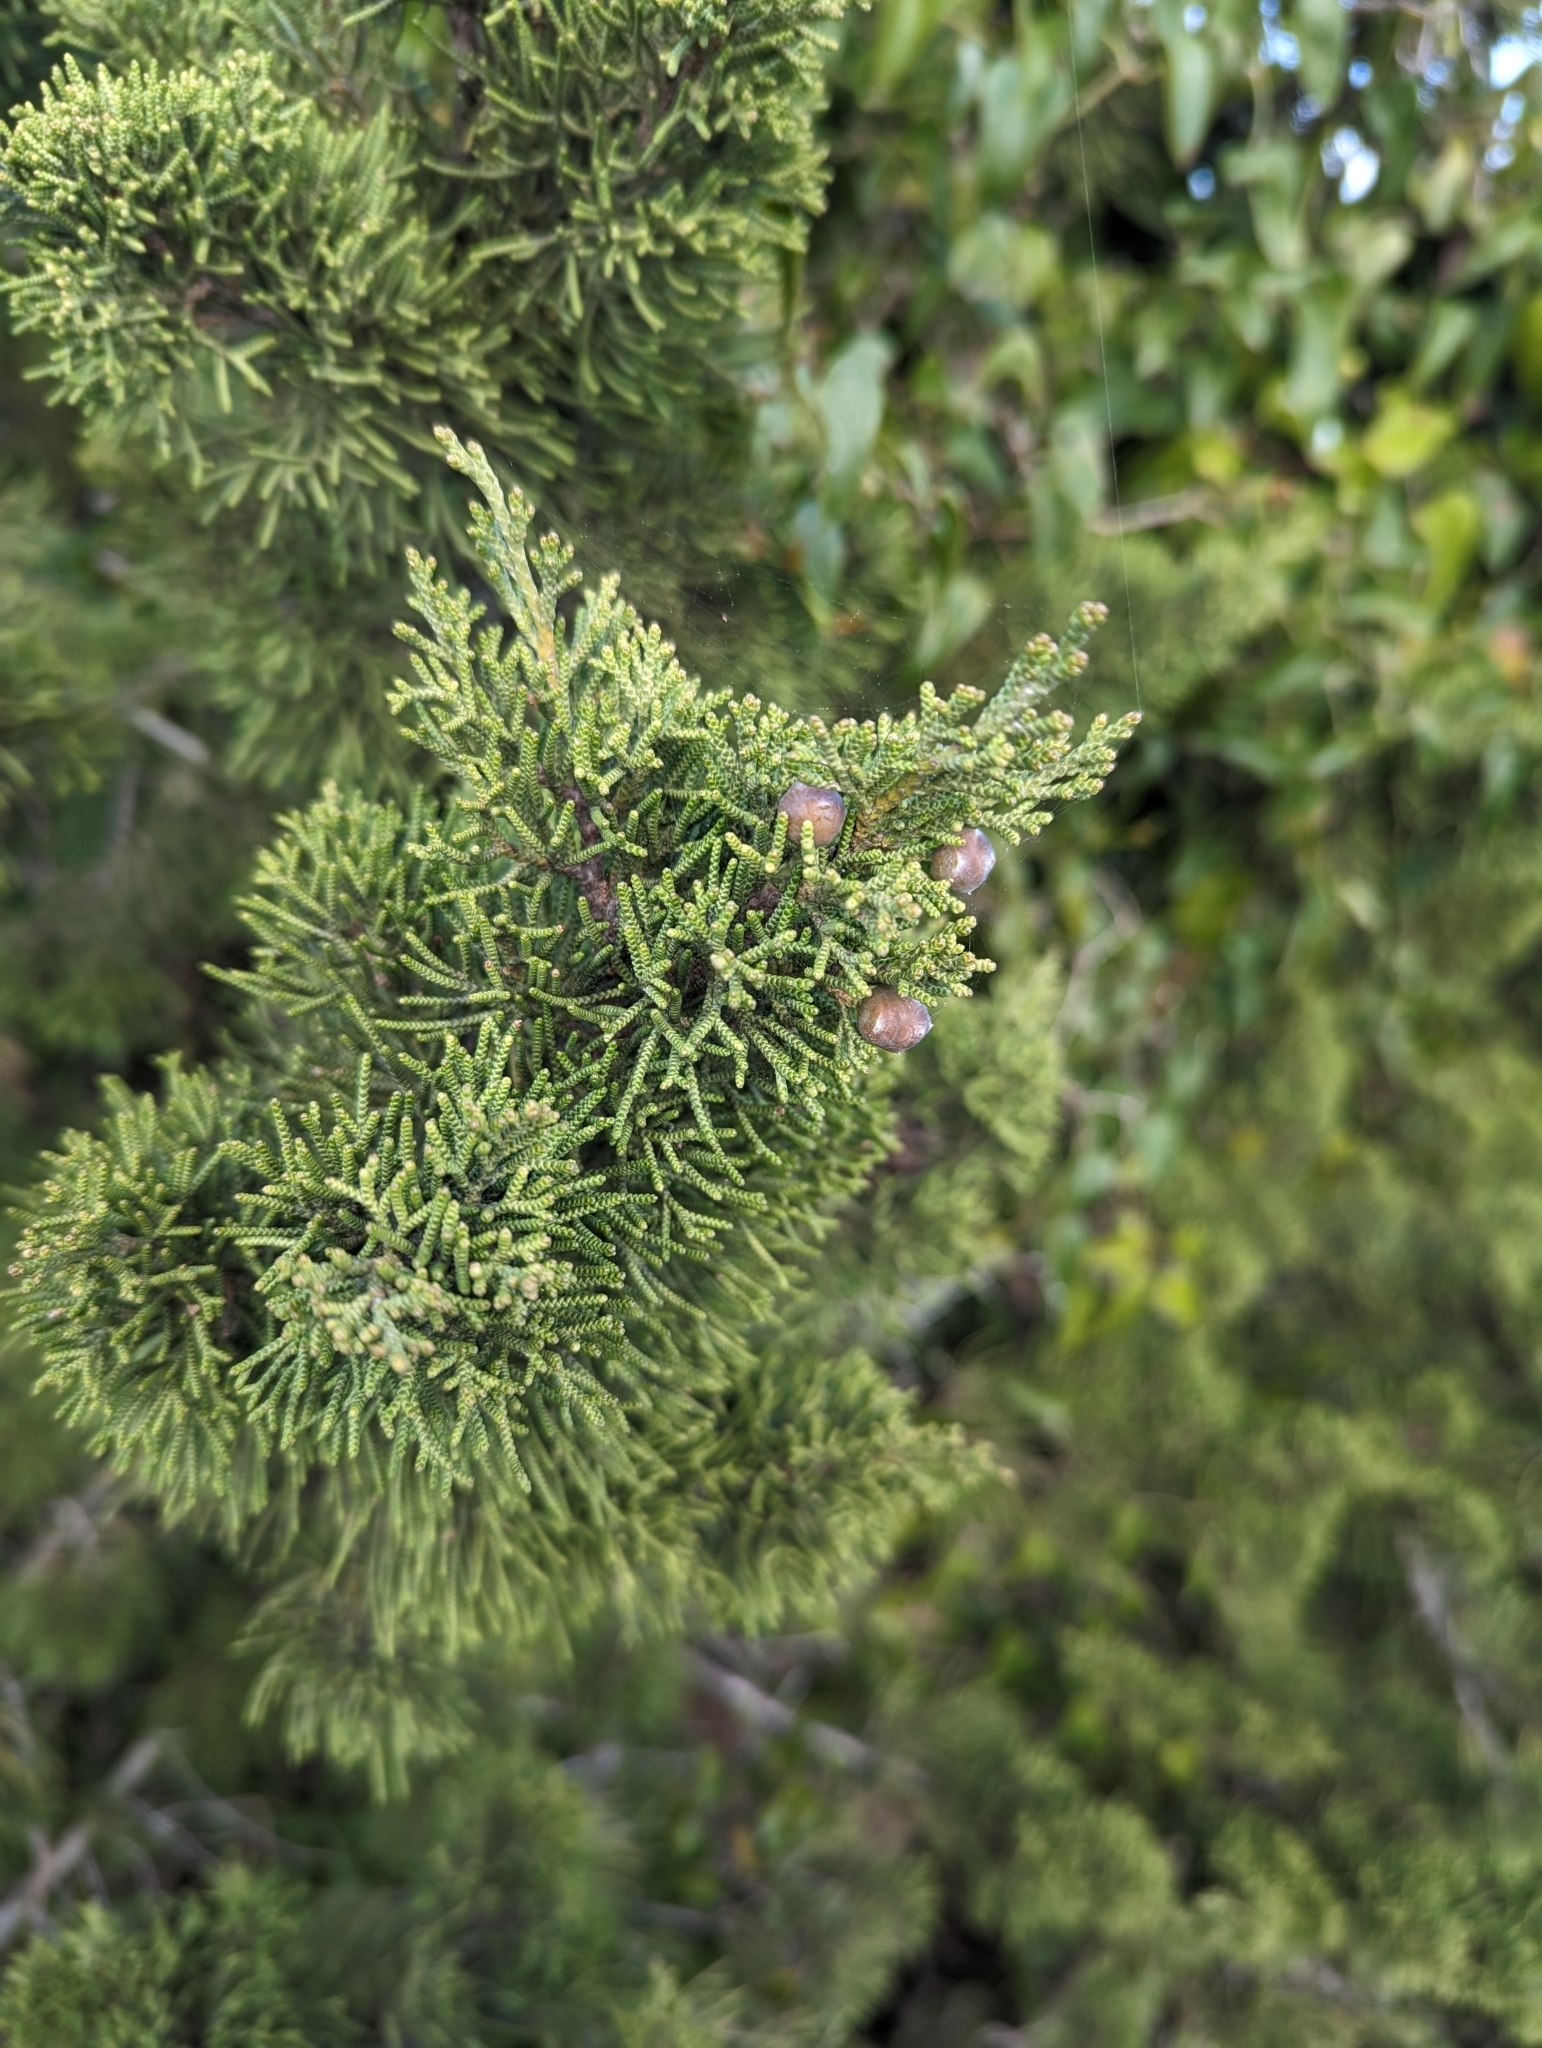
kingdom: Plantae
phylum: Tracheophyta
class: Pinopsida
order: Pinales
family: Cupressaceae
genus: Juniperus
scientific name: Juniperus phoenicea
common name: Phoenician juniper
